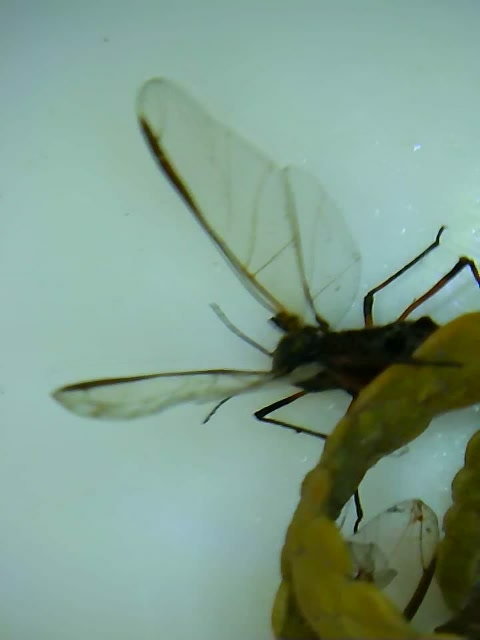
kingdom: Animalia
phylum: Arthropoda
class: Insecta
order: Hemiptera
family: Aphididae
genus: Tuberolachnus
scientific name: Tuberolachnus salignus
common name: Giant willow aphid
